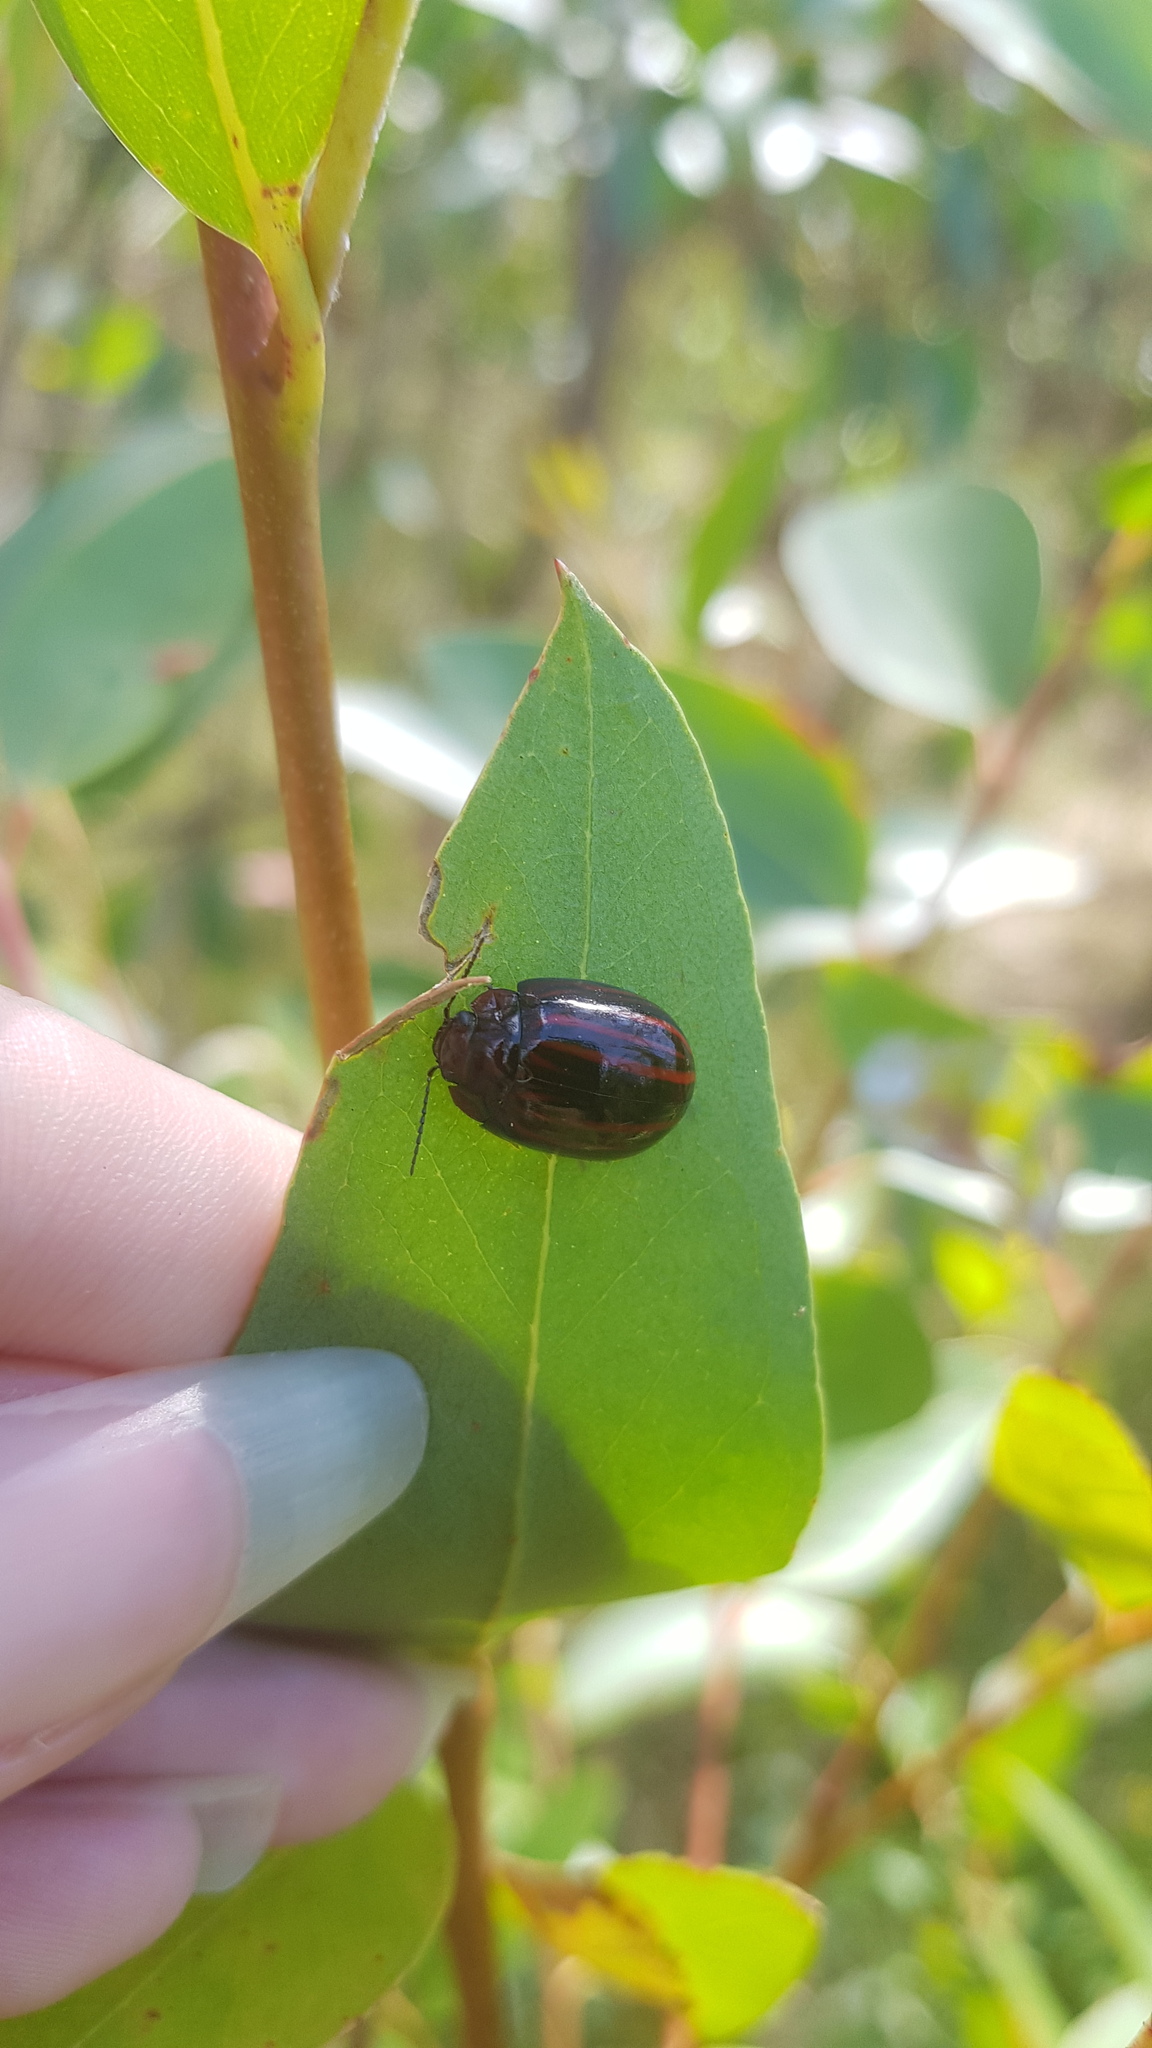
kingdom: Animalia
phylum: Arthropoda
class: Insecta
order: Coleoptera
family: Chrysomelidae
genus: Paropsisterna
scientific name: Paropsisterna
